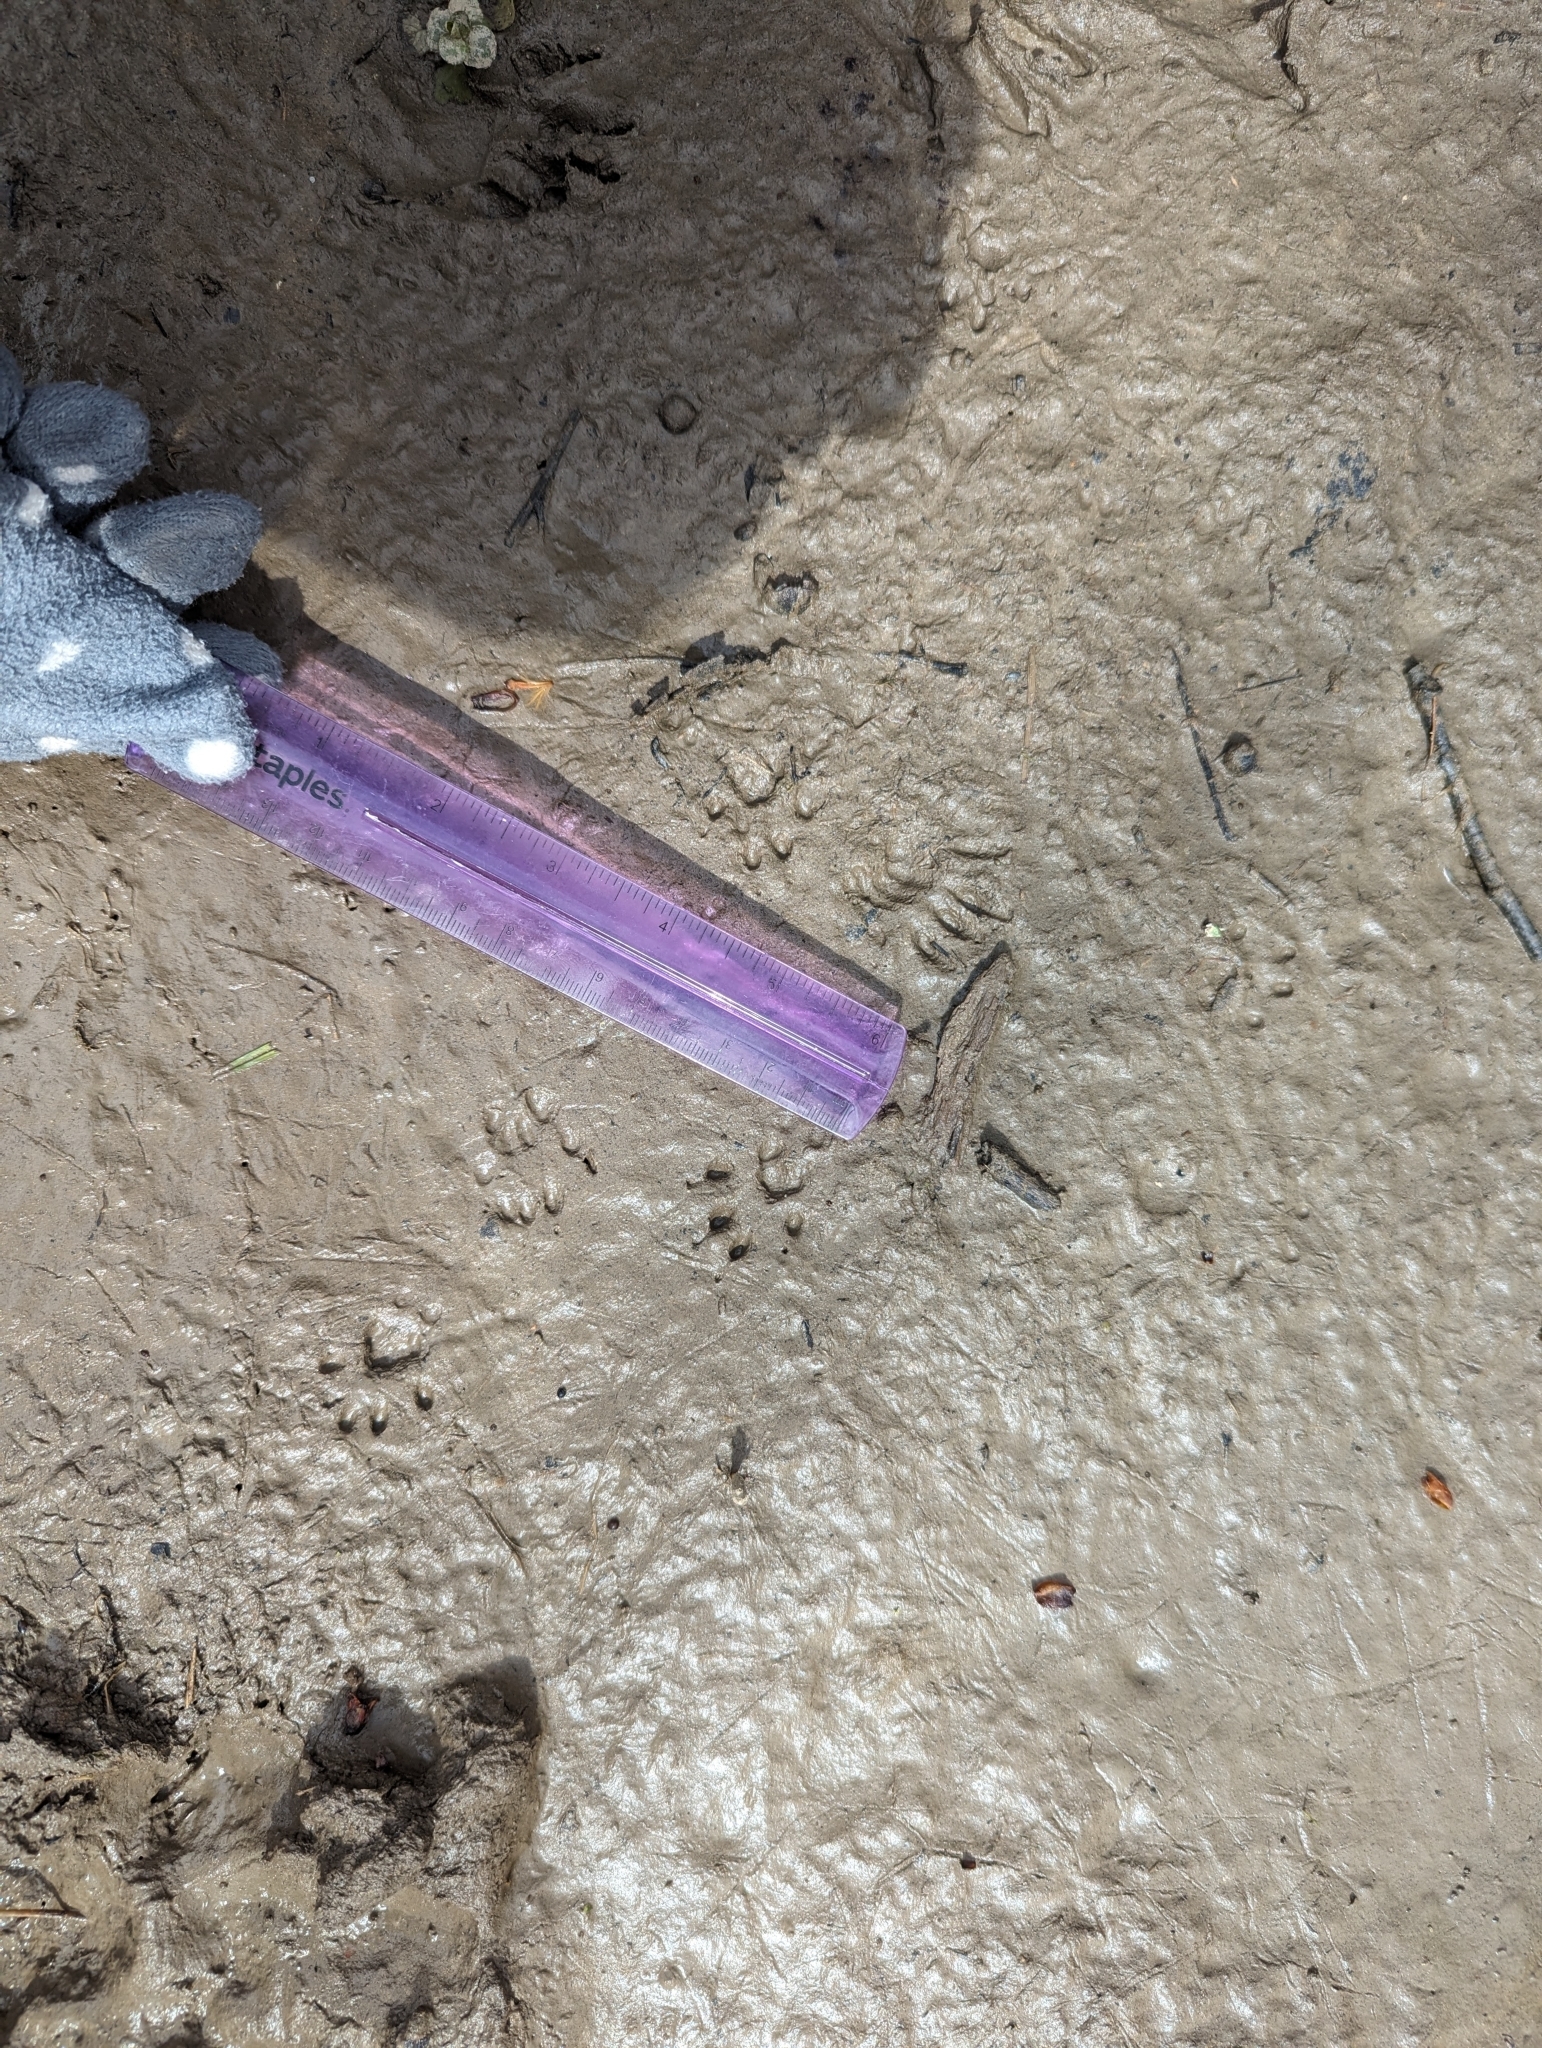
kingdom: Animalia
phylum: Chordata
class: Mammalia
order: Carnivora
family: Mustelidae
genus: Mustela
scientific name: Mustela
